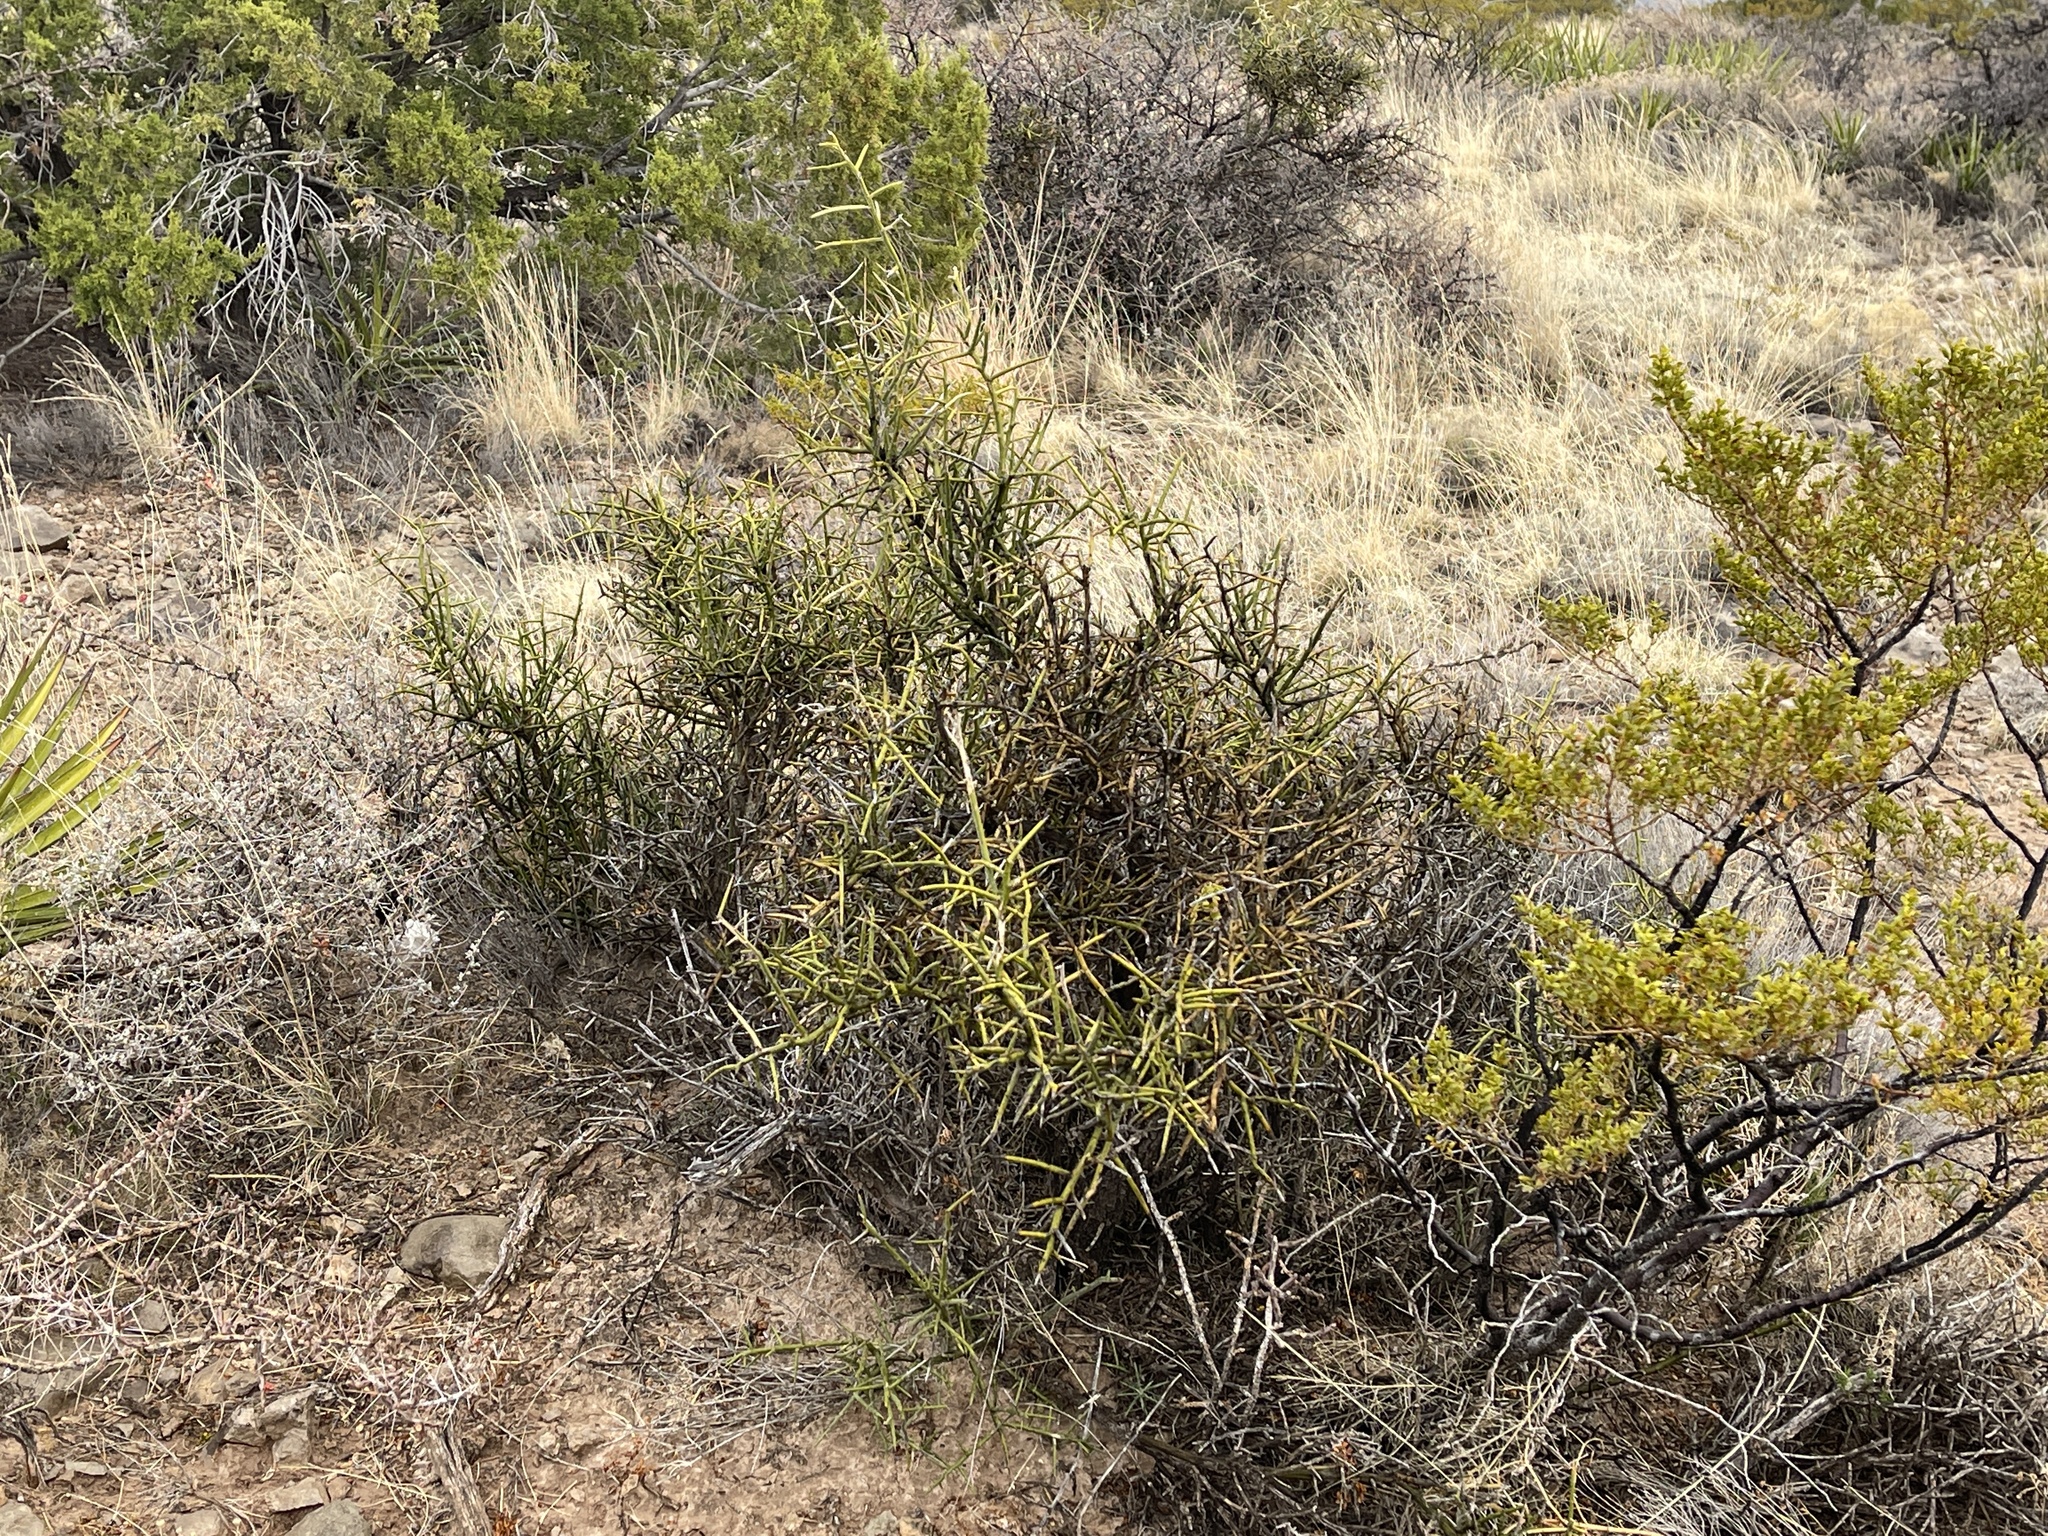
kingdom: Plantae
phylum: Tracheophyta
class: Magnoliopsida
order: Brassicales
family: Koeberliniaceae
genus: Koeberlinia
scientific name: Koeberlinia spinosa
